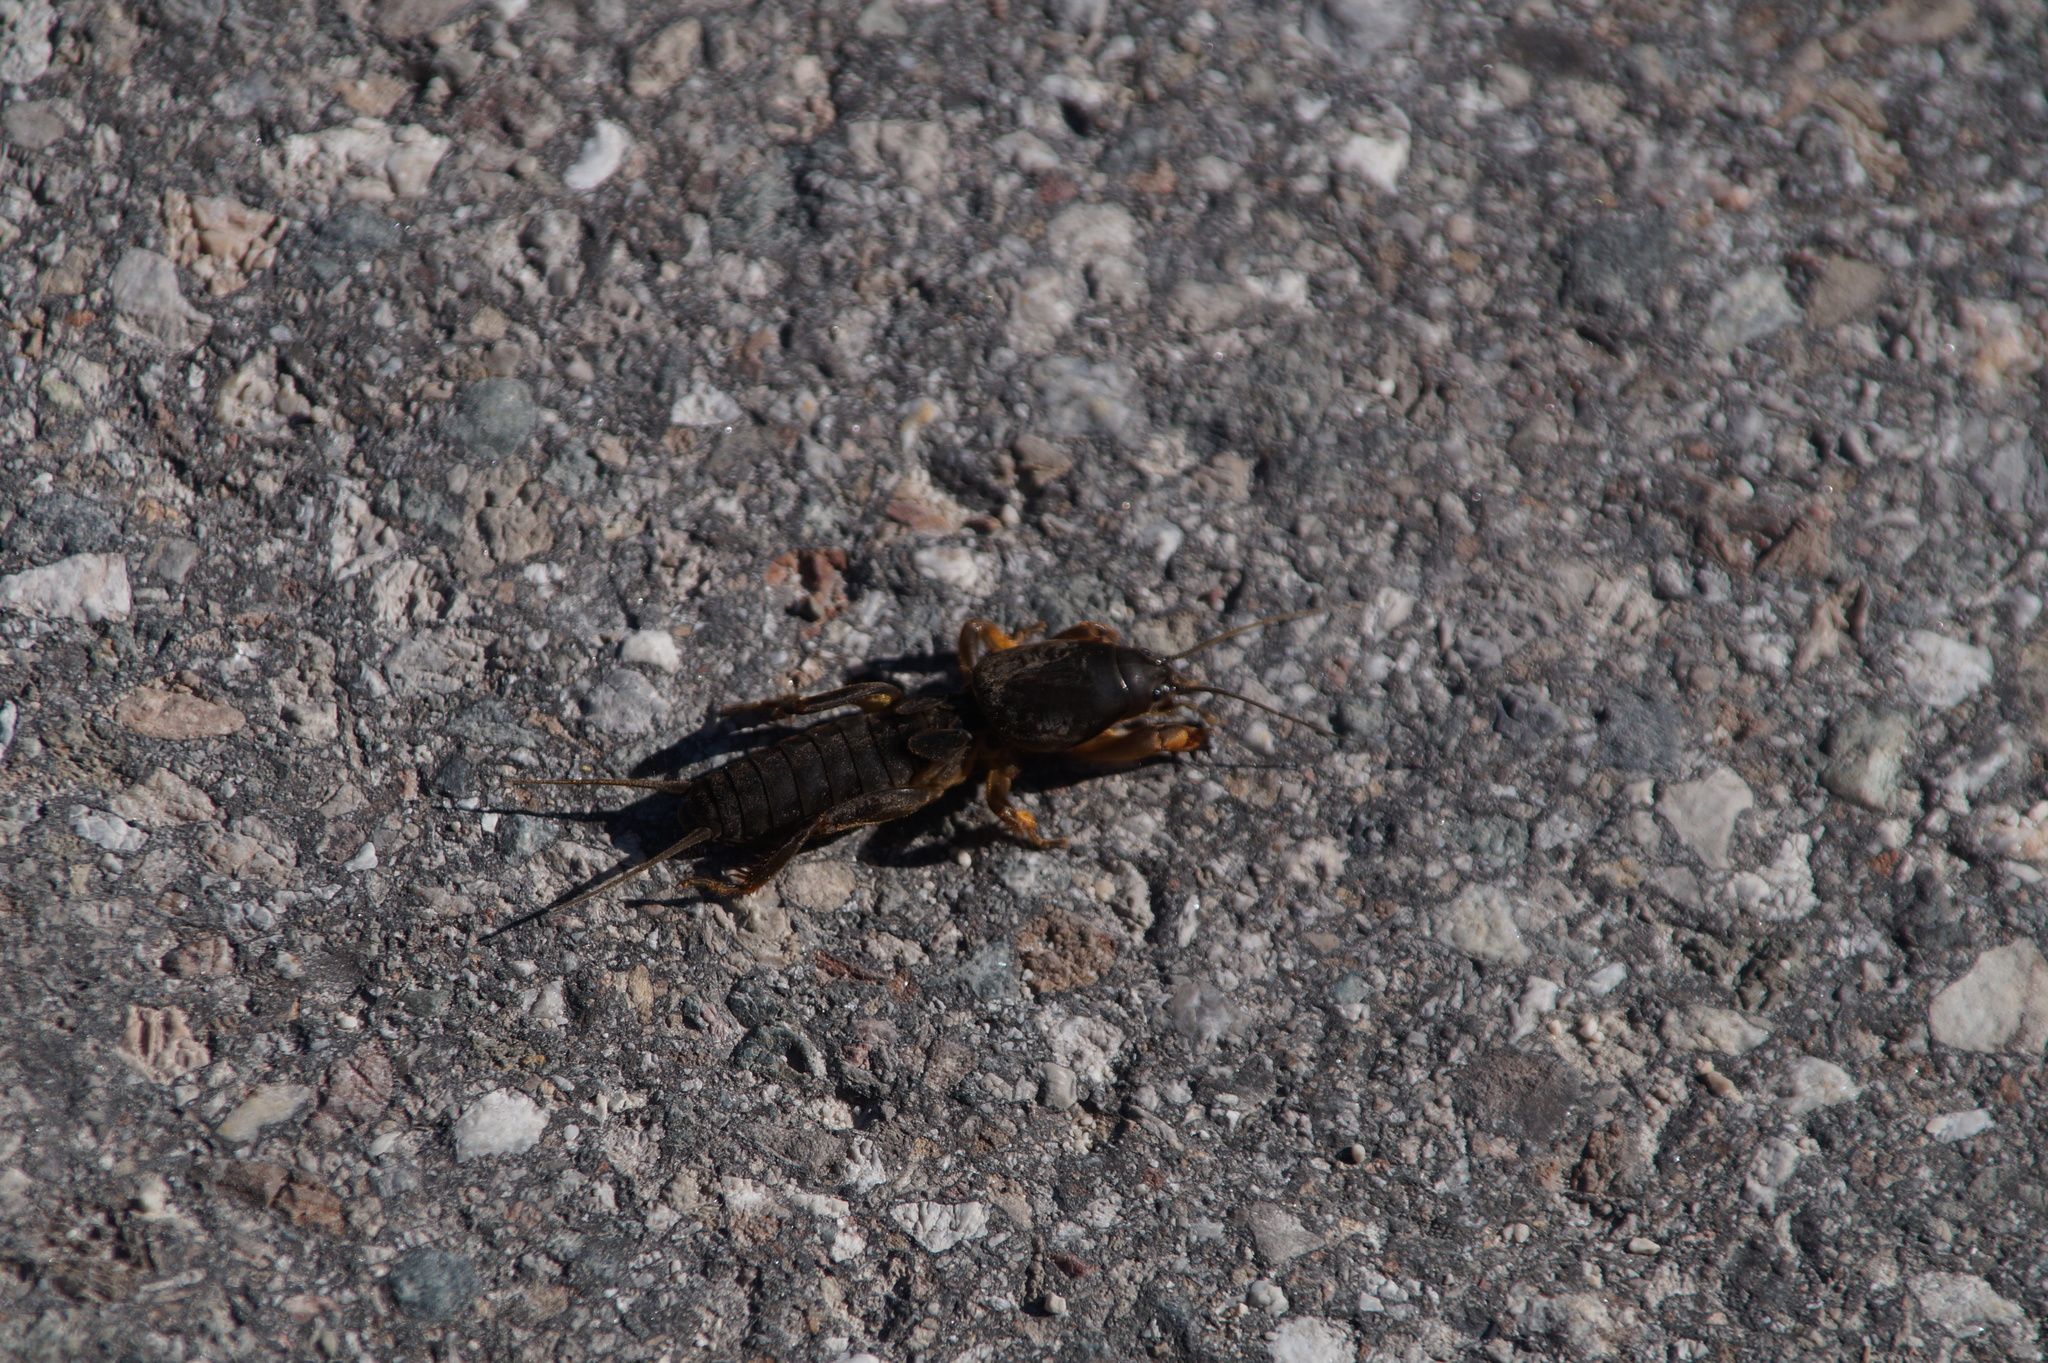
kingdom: Animalia
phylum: Arthropoda
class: Insecta
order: Orthoptera
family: Gryllotalpidae
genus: Gryllotalpa
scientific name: Gryllotalpa gryllotalpa
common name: European mole cricket
